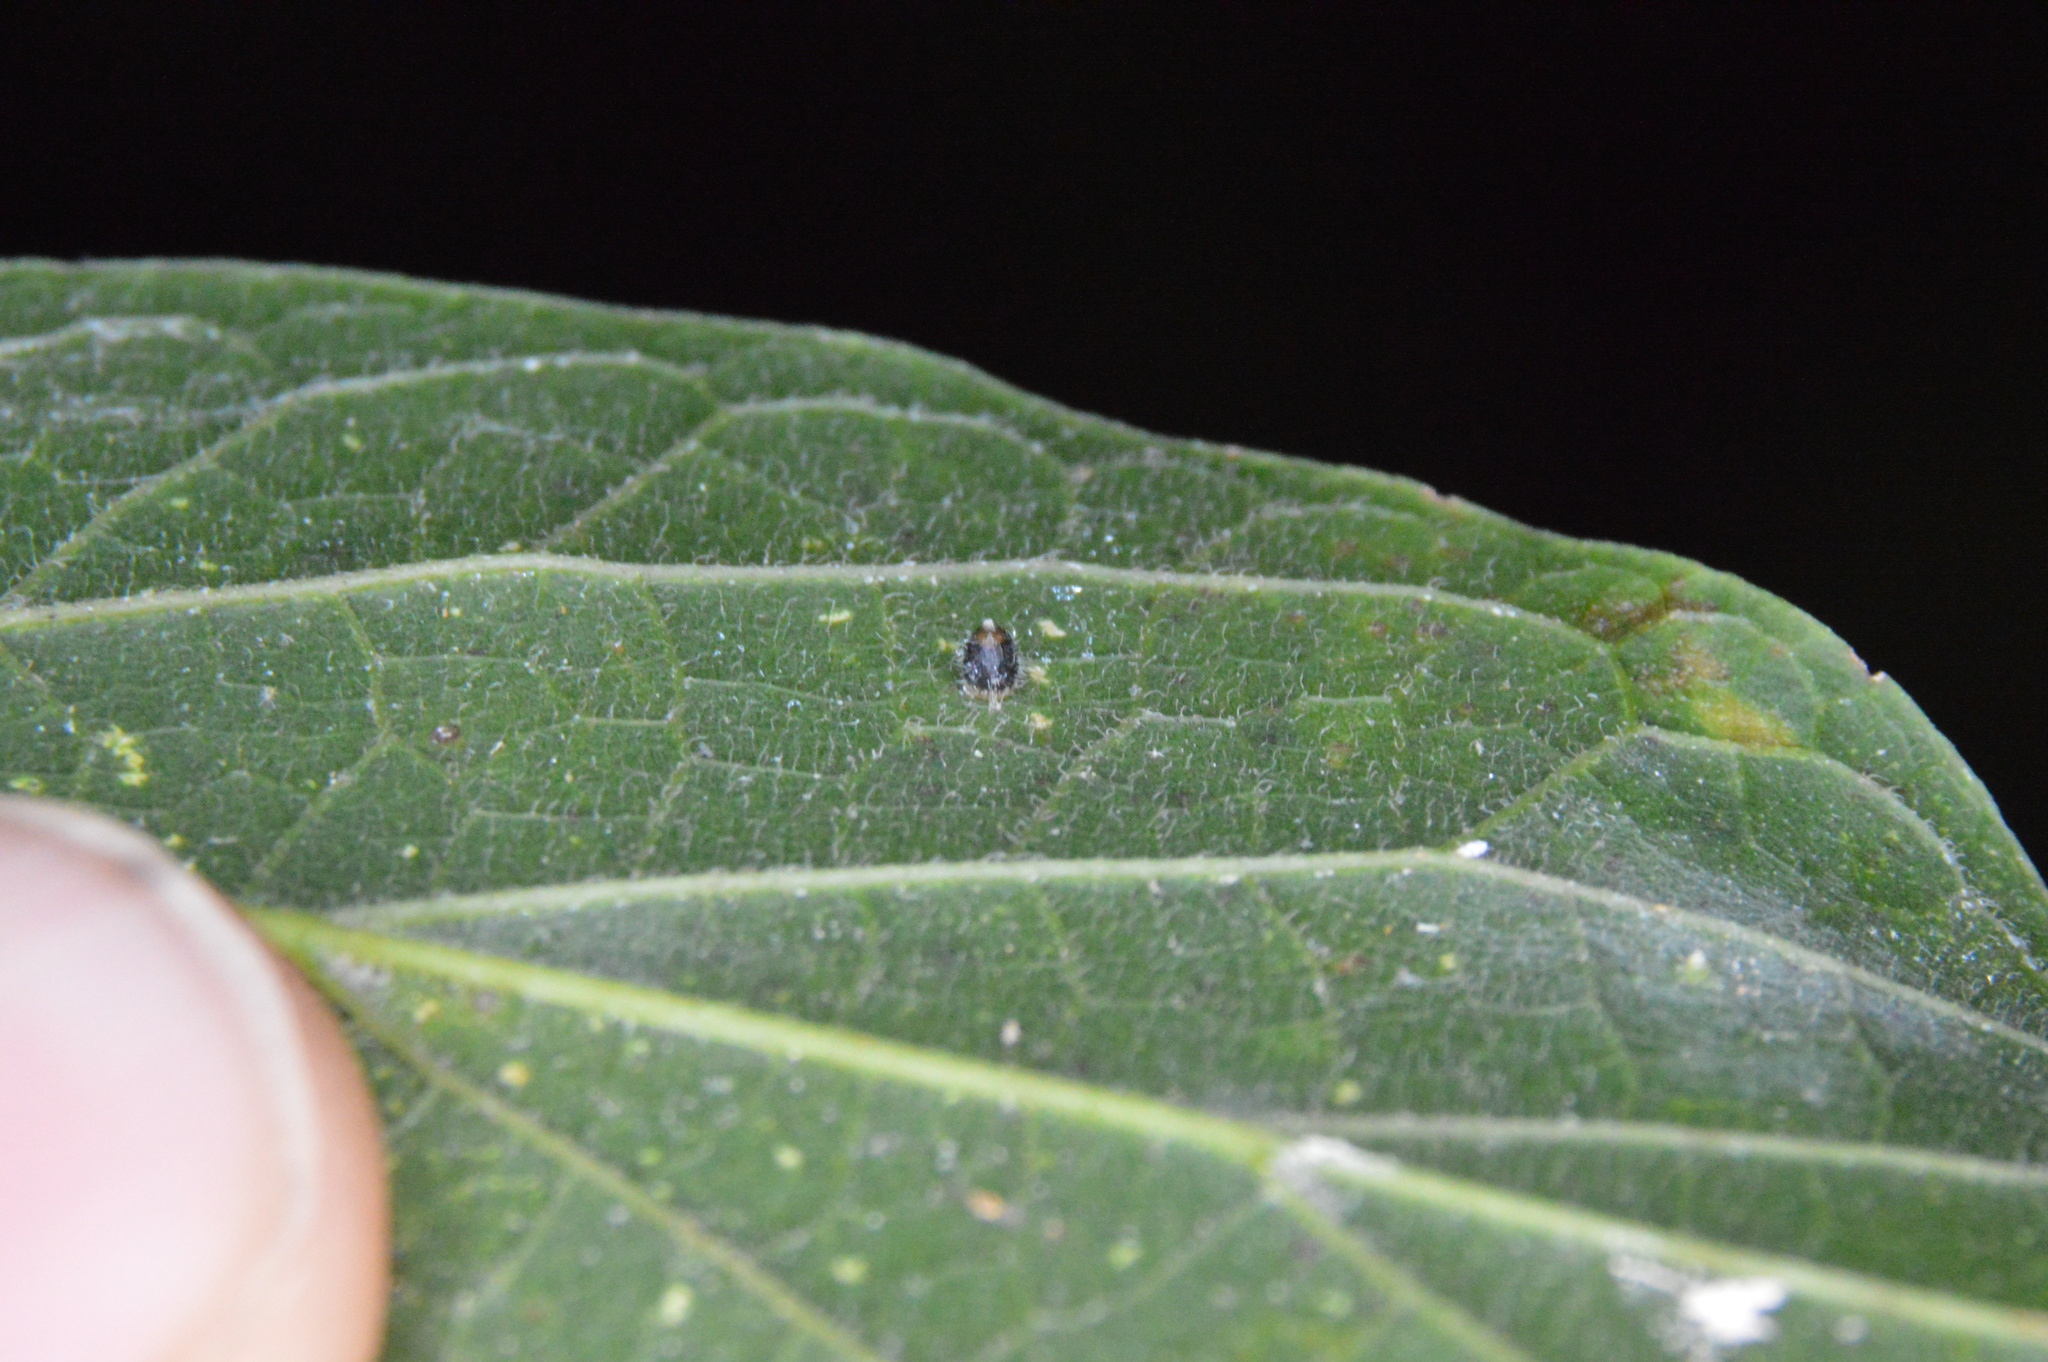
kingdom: Animalia
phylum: Arthropoda
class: Insecta
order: Diptera
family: Cecidomyiidae
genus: Celticecis
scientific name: Celticecis cupiformis
